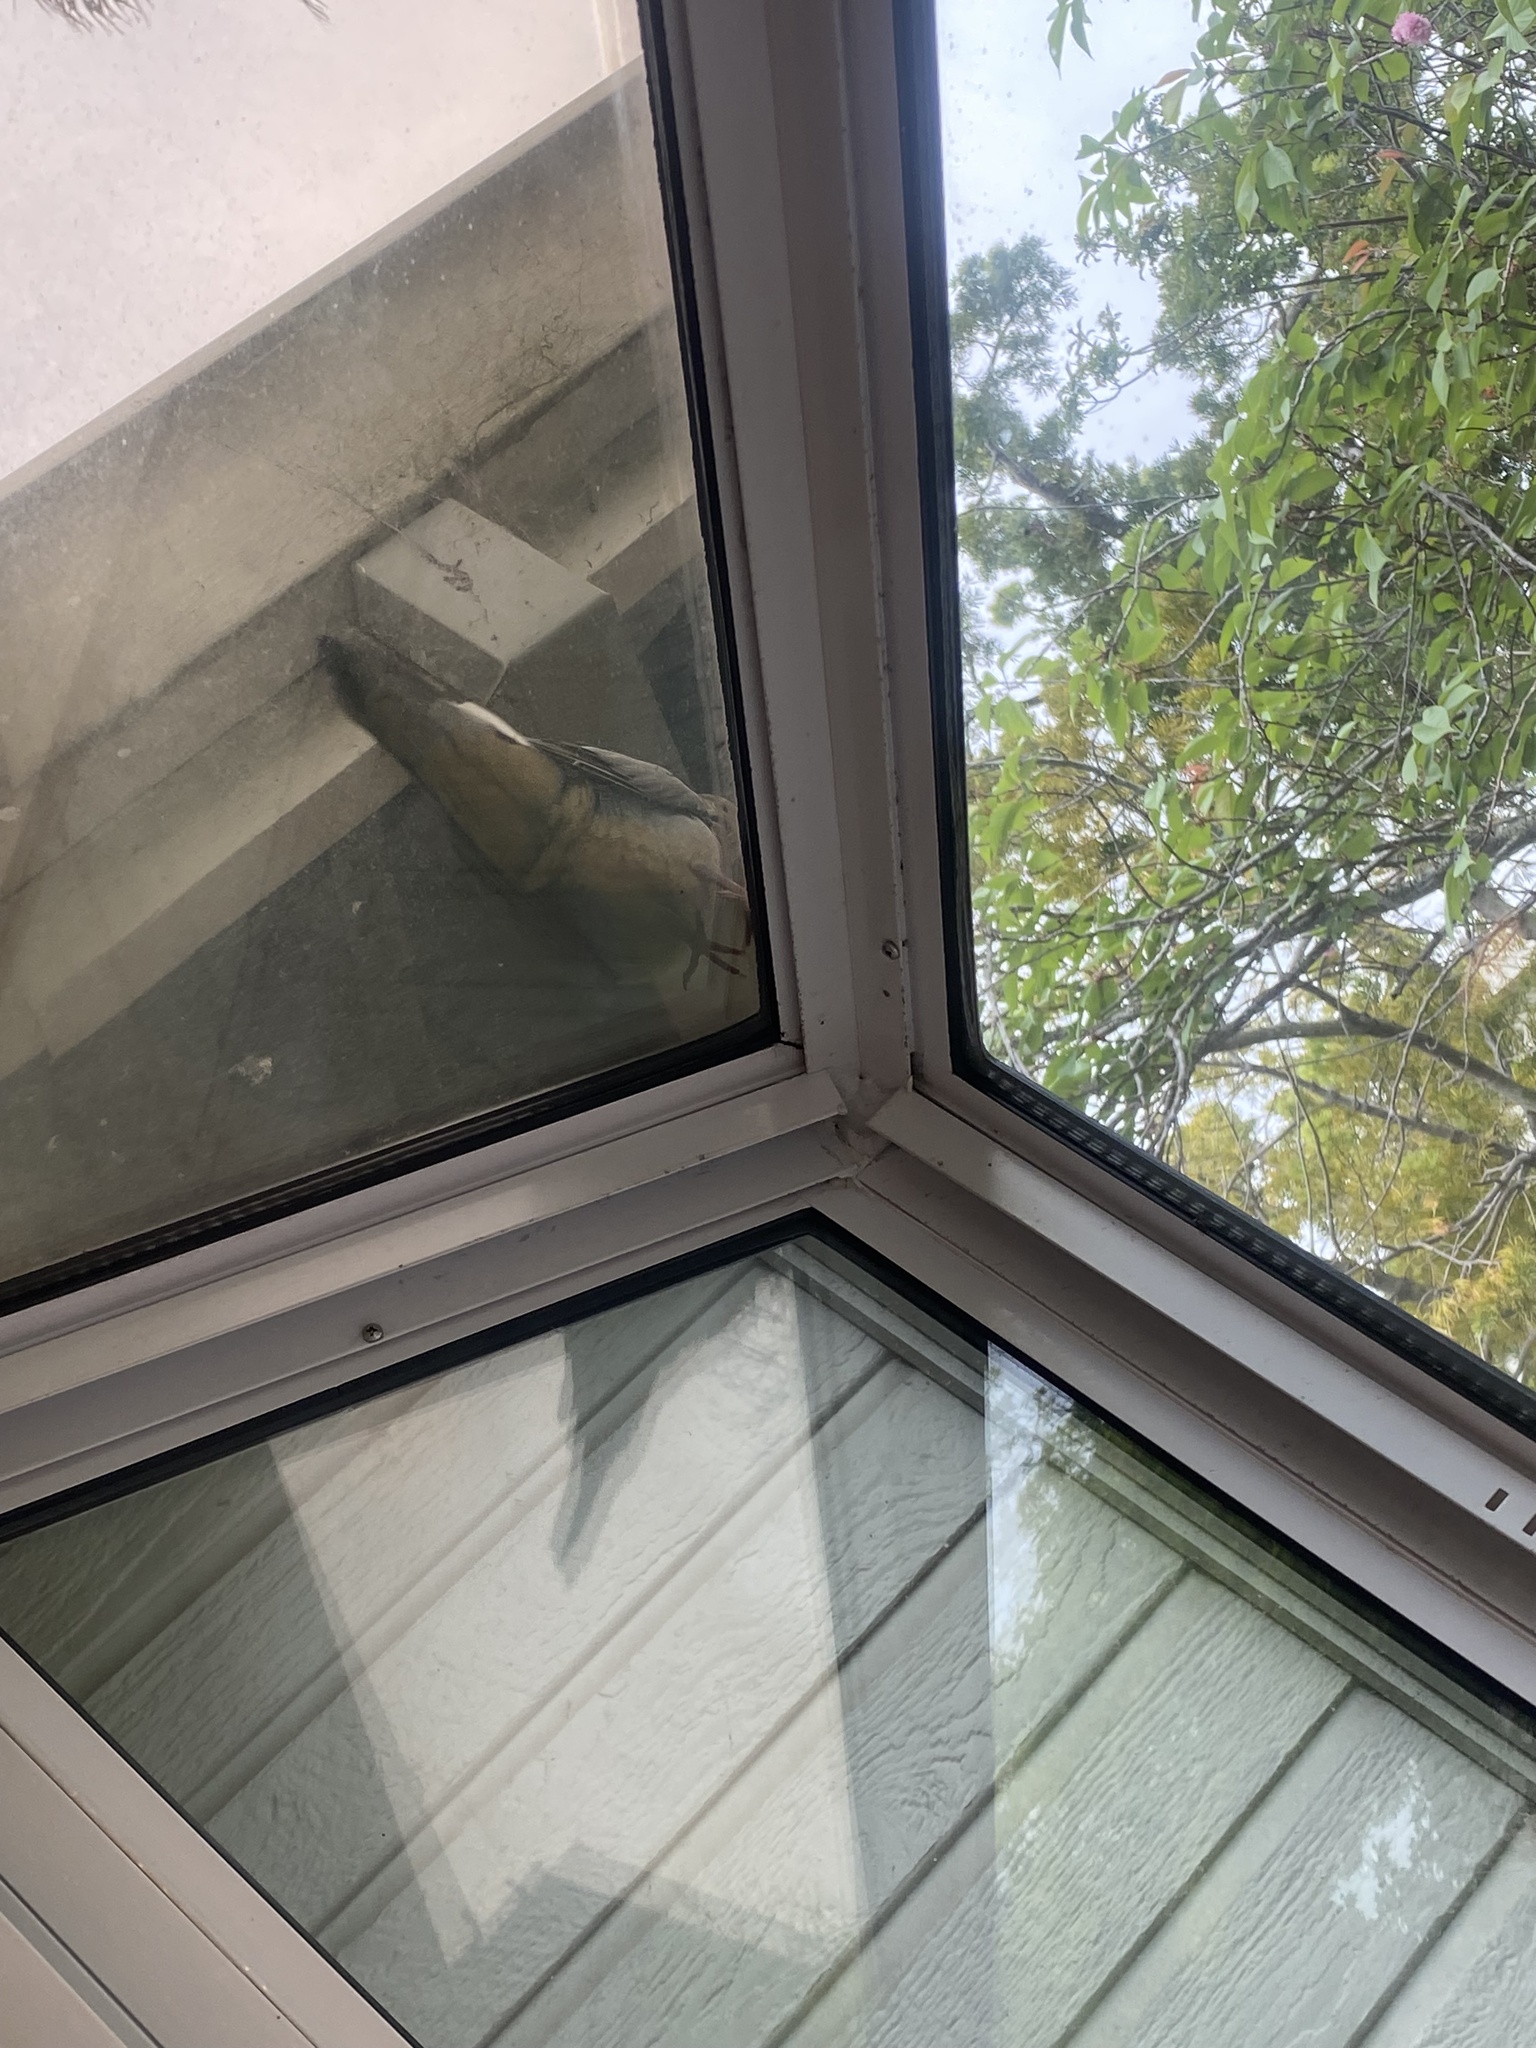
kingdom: Animalia
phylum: Chordata
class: Aves
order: Columbiformes
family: Columbidae
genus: Zenaida
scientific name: Zenaida macroura
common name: Mourning dove
